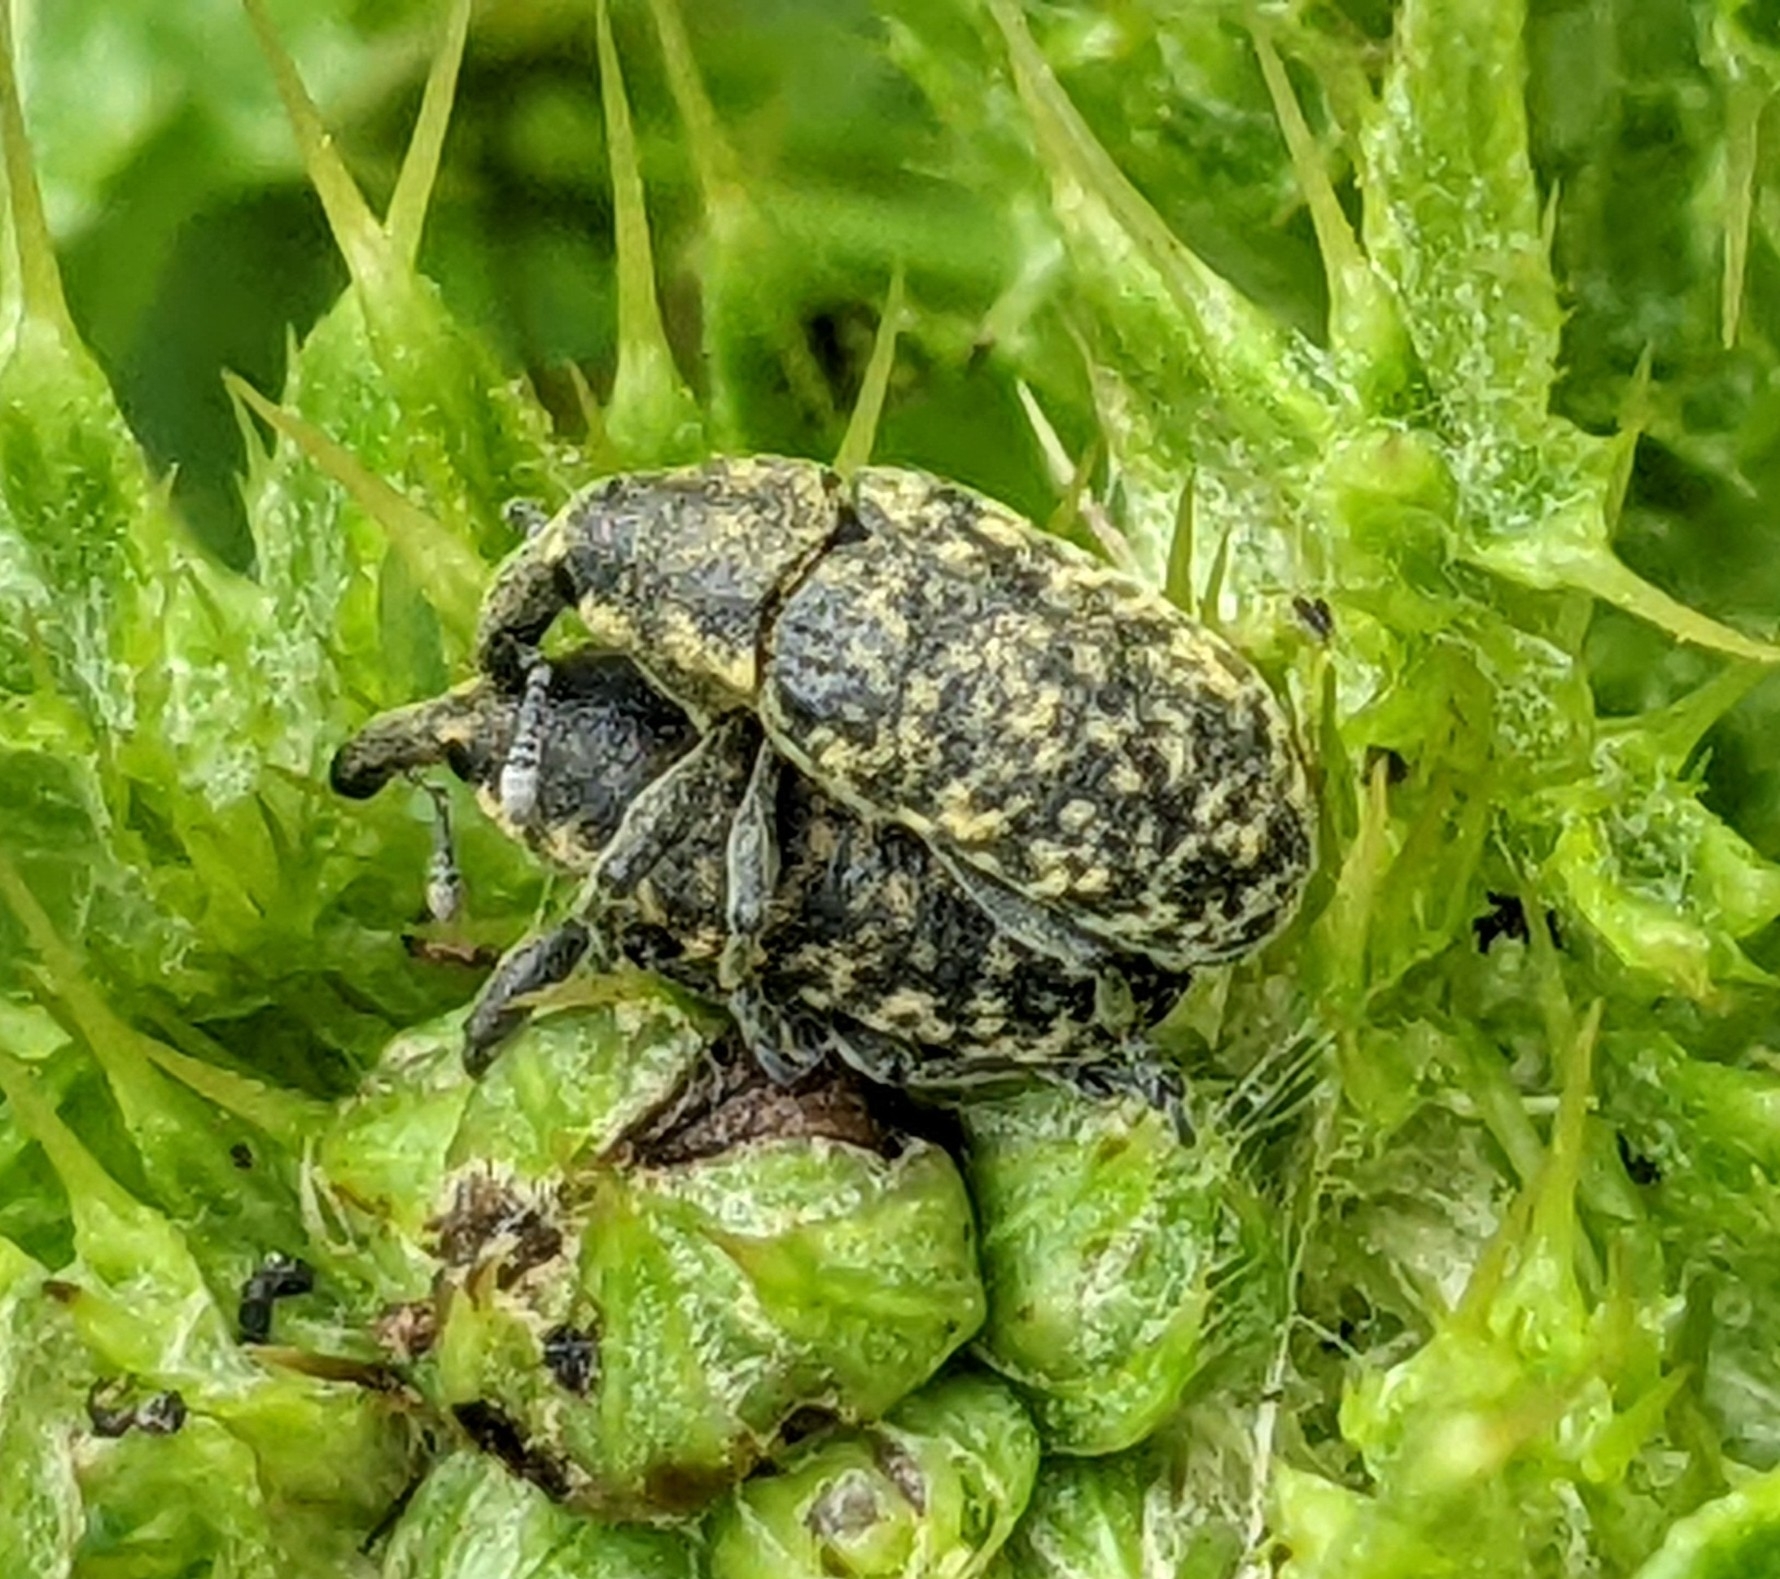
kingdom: Animalia
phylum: Arthropoda
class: Insecta
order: Coleoptera
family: Curculionidae
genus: Larinus
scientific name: Larinus carlinae
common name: Weevil
